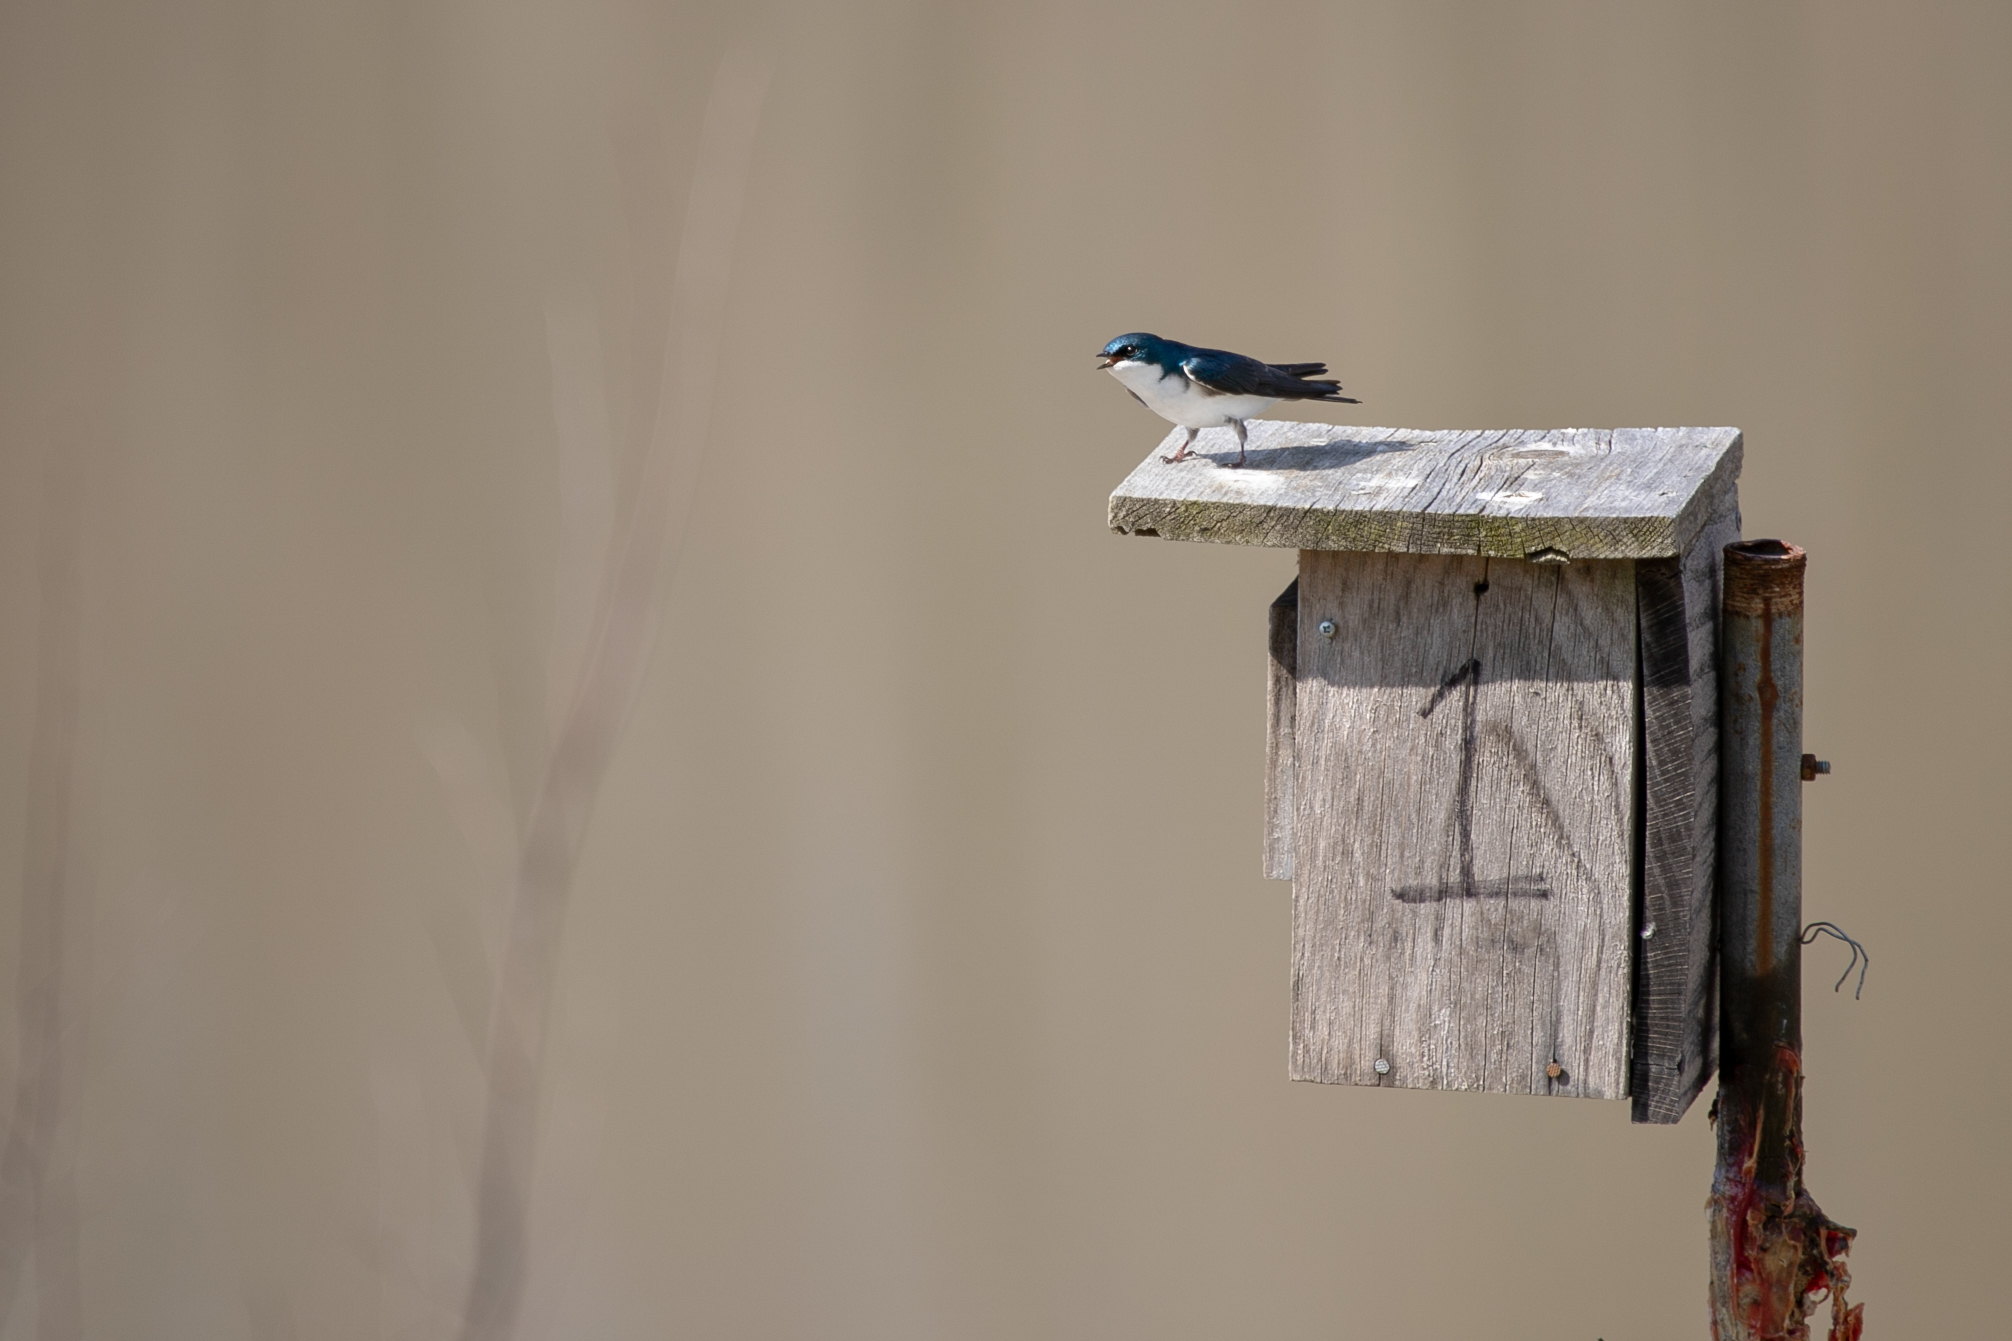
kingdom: Animalia
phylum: Chordata
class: Aves
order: Passeriformes
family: Hirundinidae
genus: Tachycineta
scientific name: Tachycineta bicolor
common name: Tree swallow
